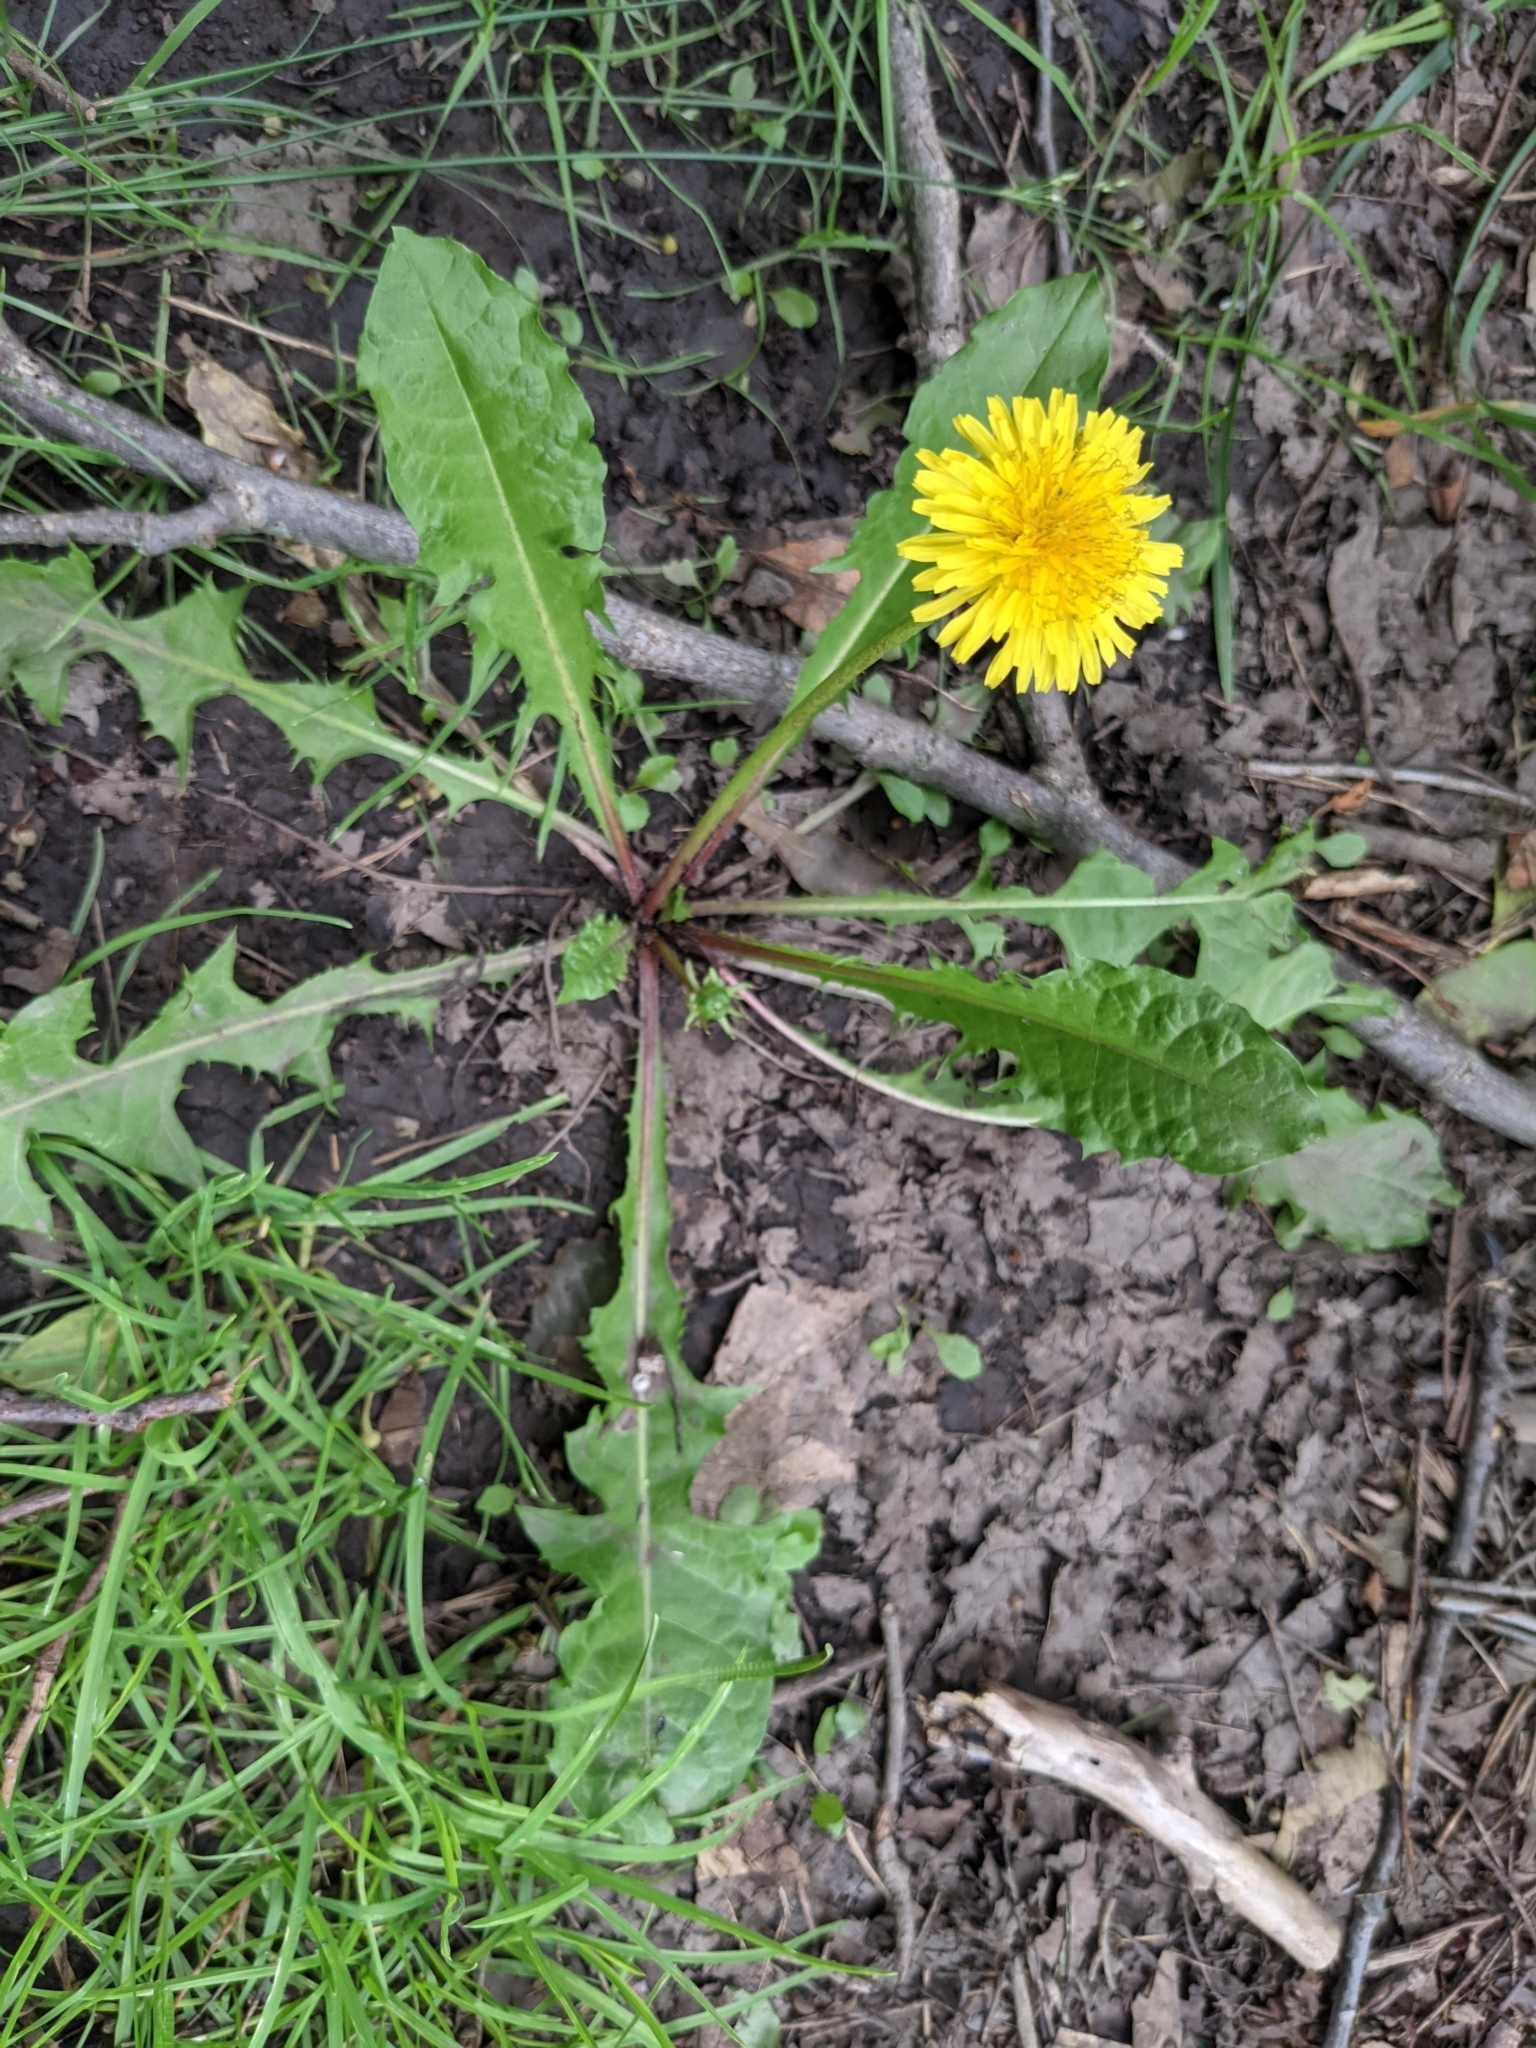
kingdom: Plantae
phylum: Tracheophyta
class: Magnoliopsida
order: Asterales
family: Asteraceae
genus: Taraxacum
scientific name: Taraxacum
